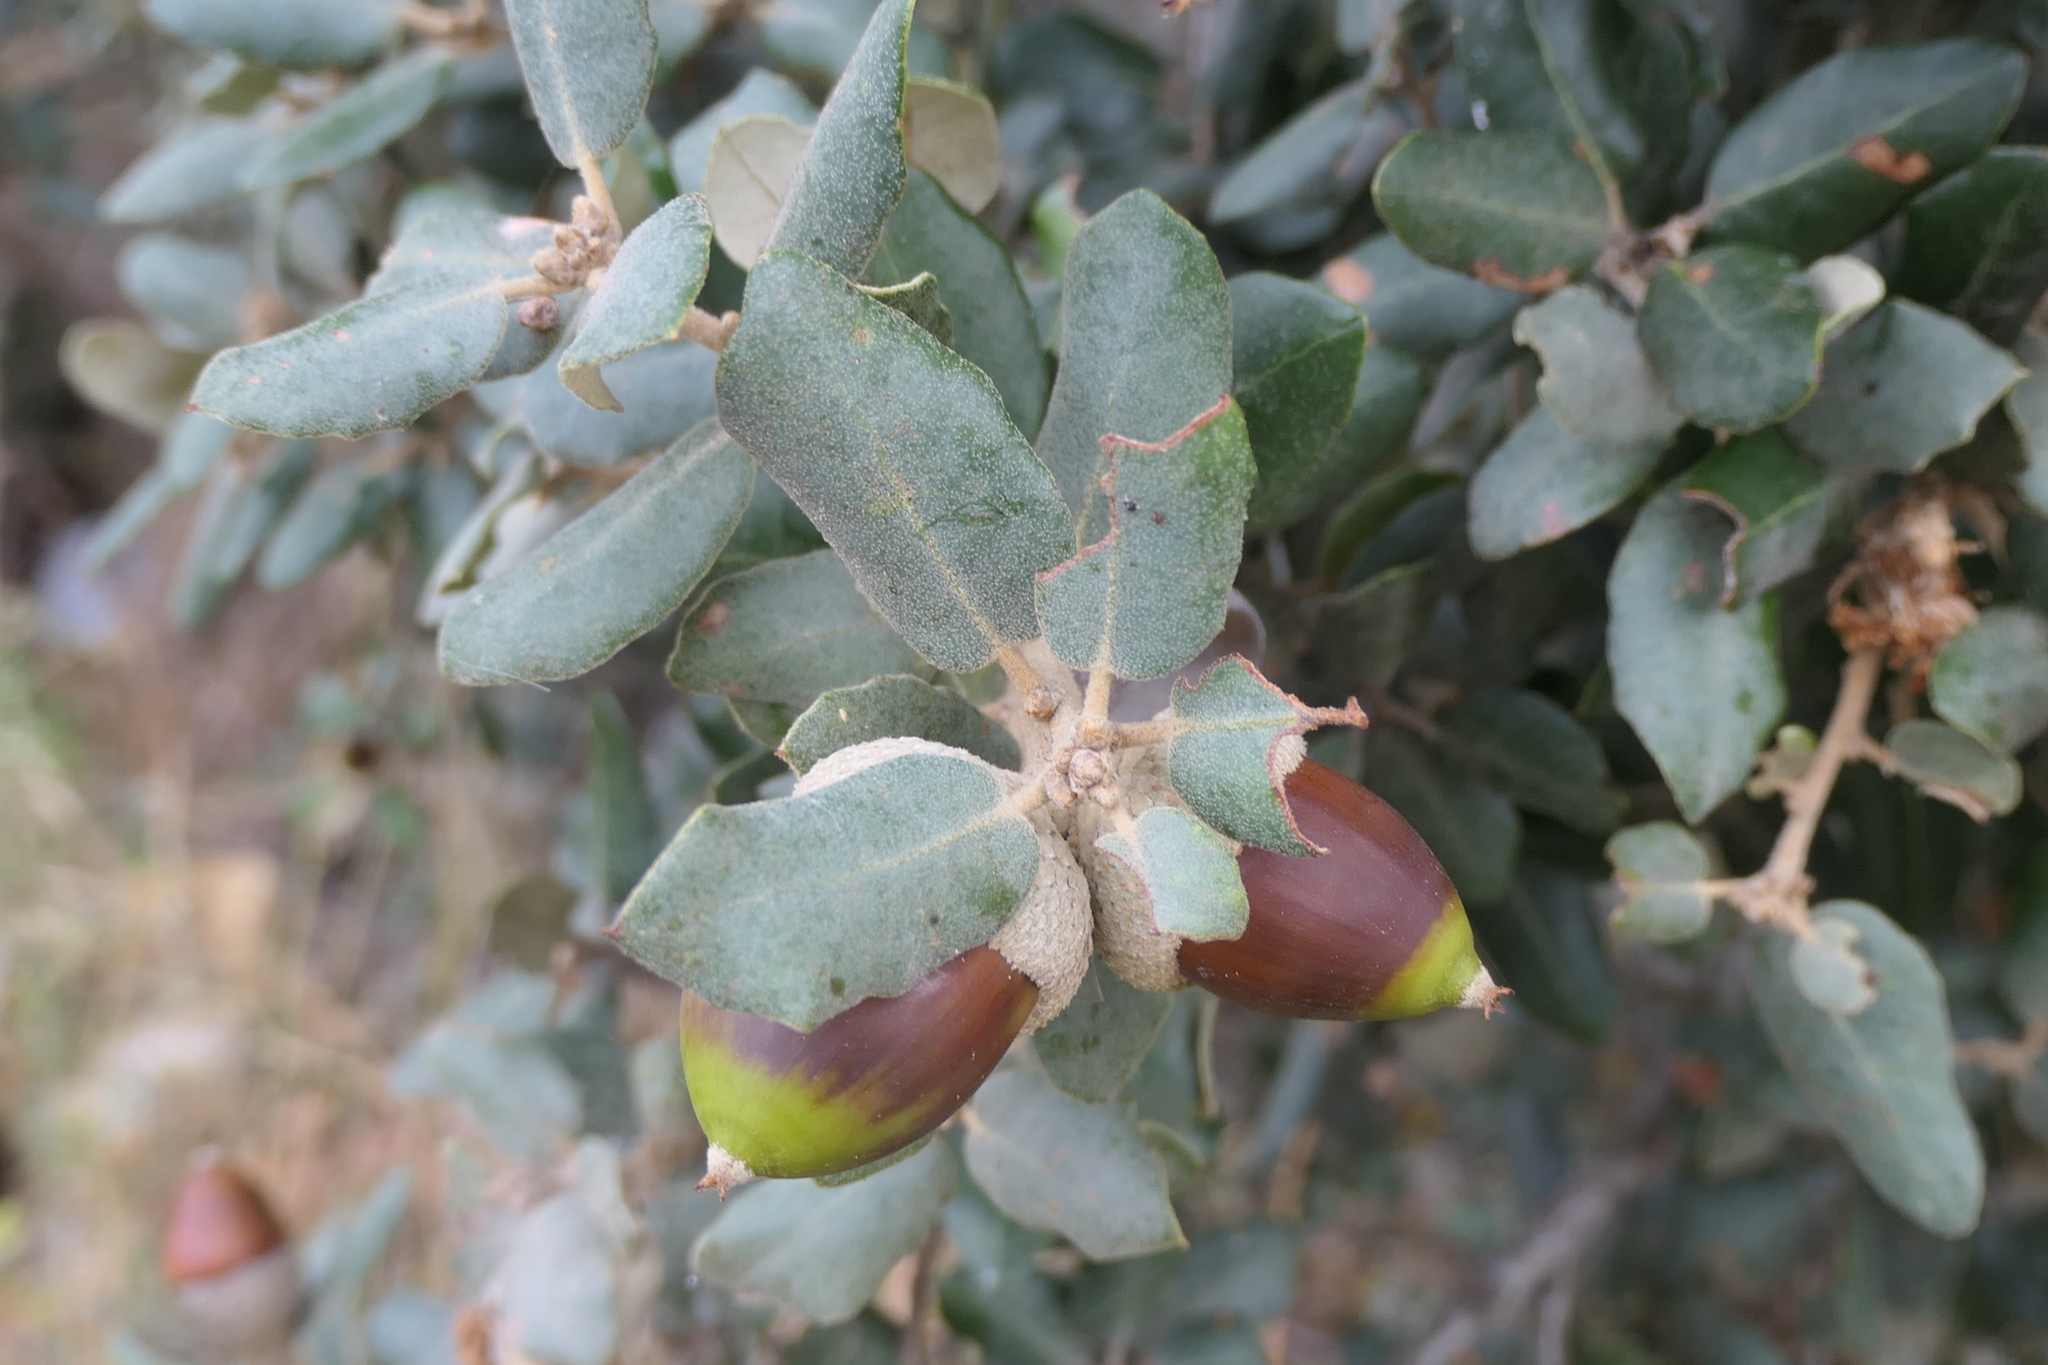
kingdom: Plantae
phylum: Tracheophyta
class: Magnoliopsida
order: Fagales
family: Fagaceae
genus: Quercus
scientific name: Quercus rotundifolia
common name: Holm oak
